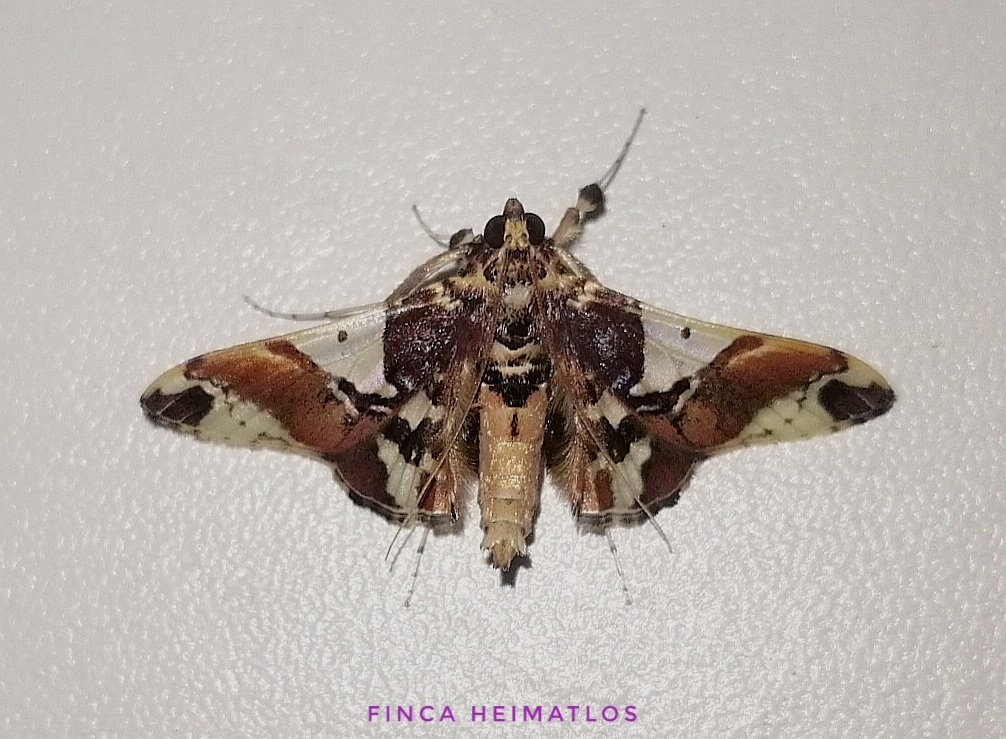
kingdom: Animalia
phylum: Arthropoda
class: Insecta
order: Lepidoptera
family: Crambidae
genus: Syngamilyta
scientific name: Syngamilyta apicolor
